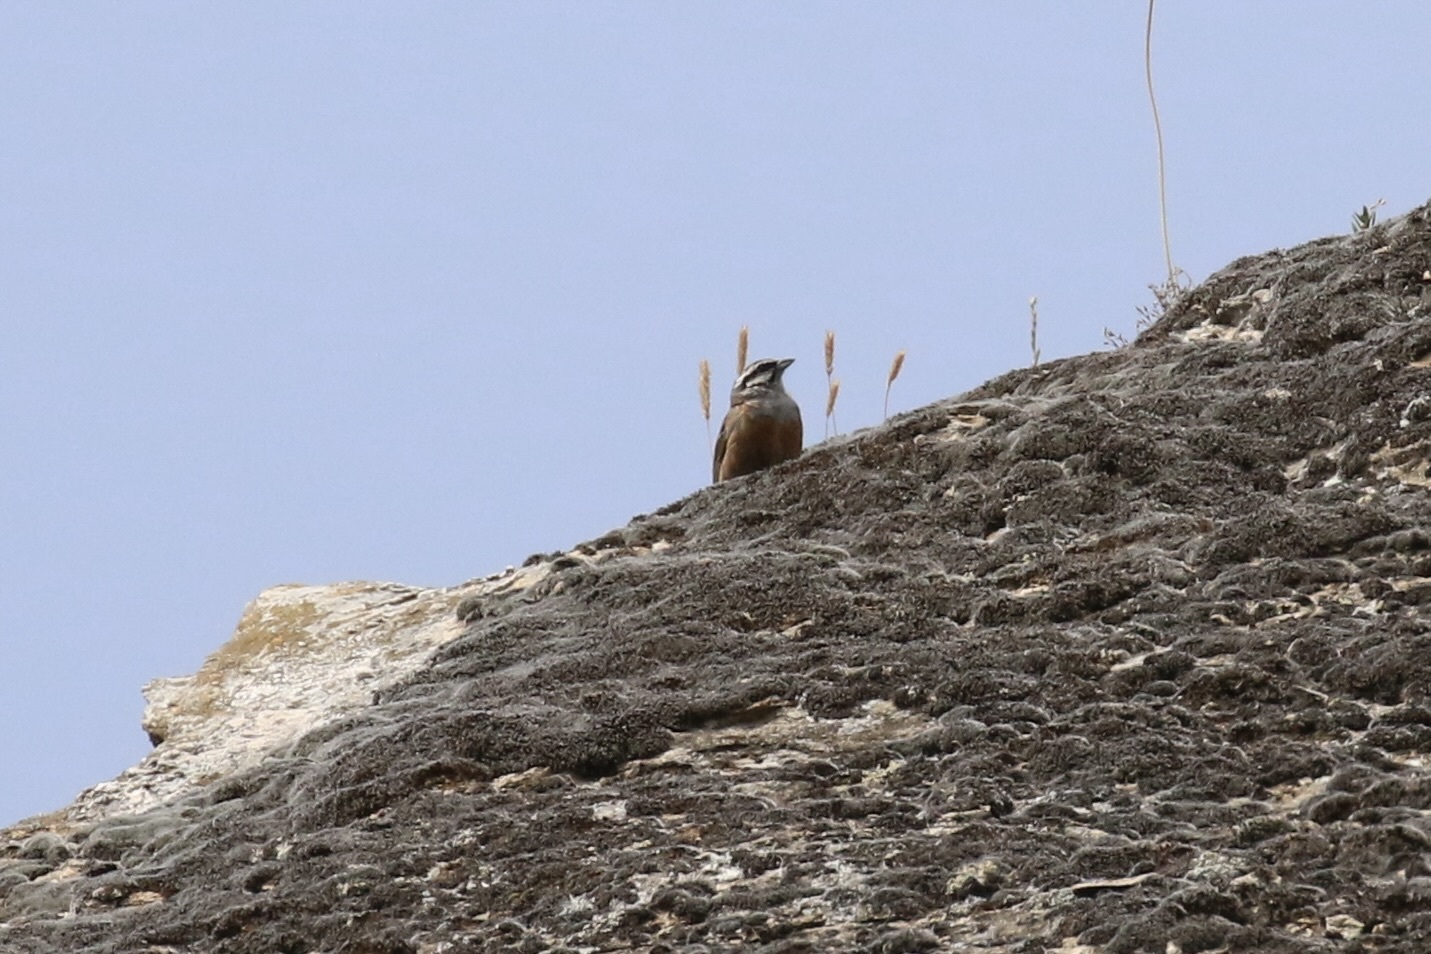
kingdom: Animalia
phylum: Chordata
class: Aves
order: Passeriformes
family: Emberizidae
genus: Emberiza
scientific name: Emberiza cia
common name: Rock bunting
